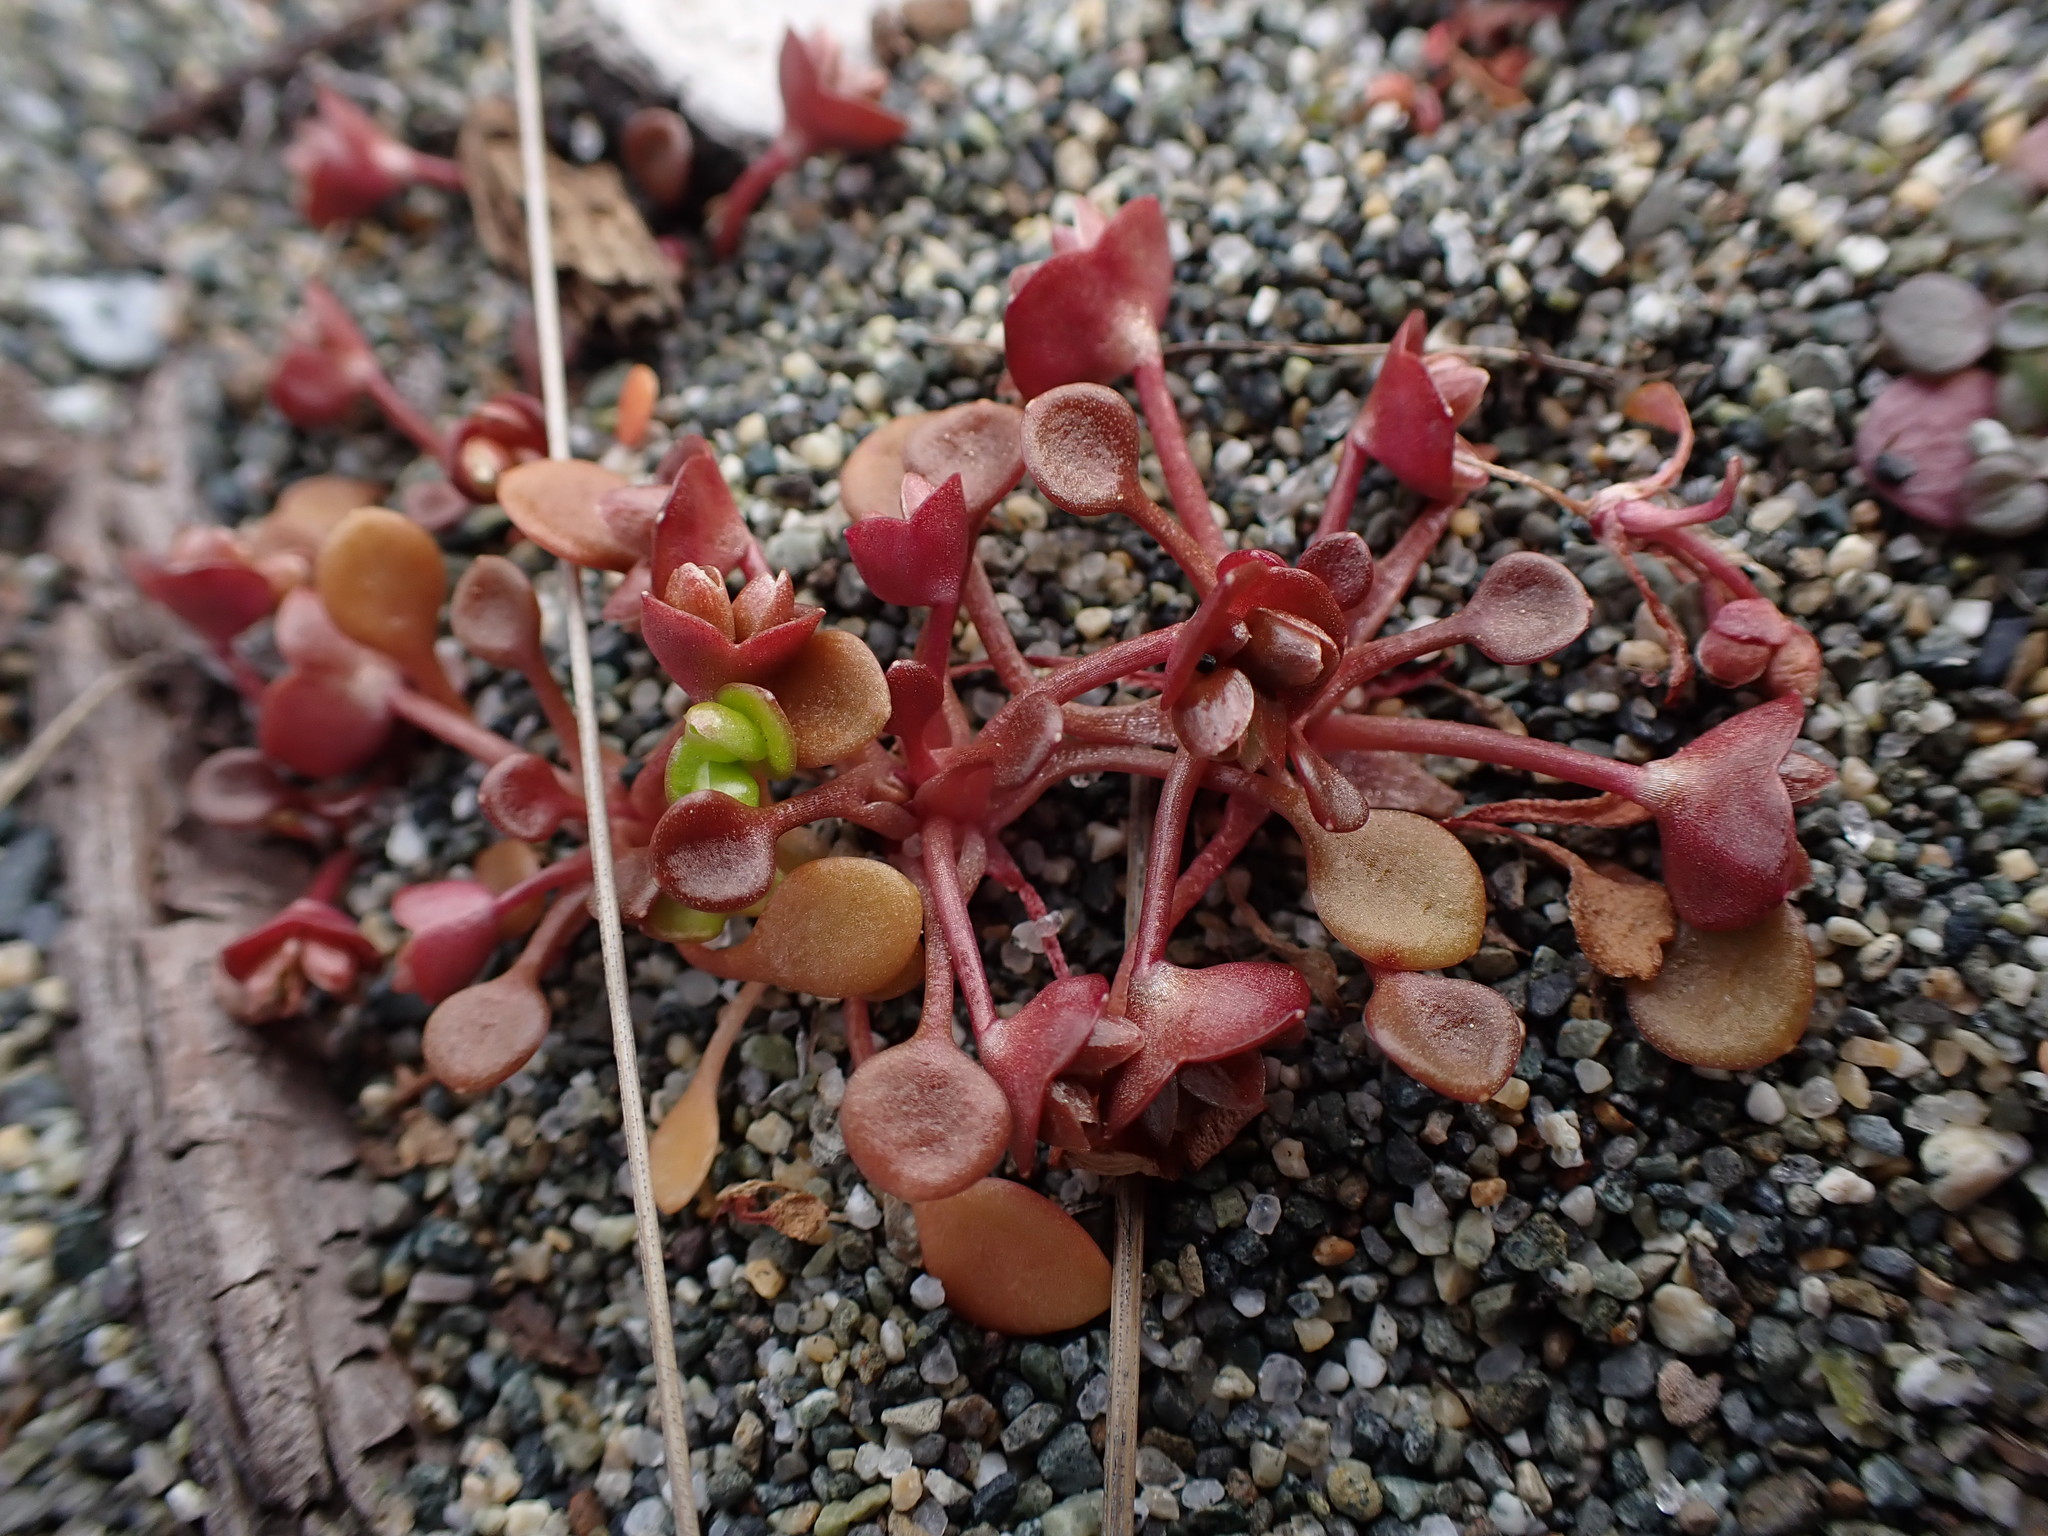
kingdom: Plantae
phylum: Tracheophyta
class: Magnoliopsida
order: Caryophyllales
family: Montiaceae
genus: Claytonia
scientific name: Claytonia rubra
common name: Erubescent miner's-lettuce
